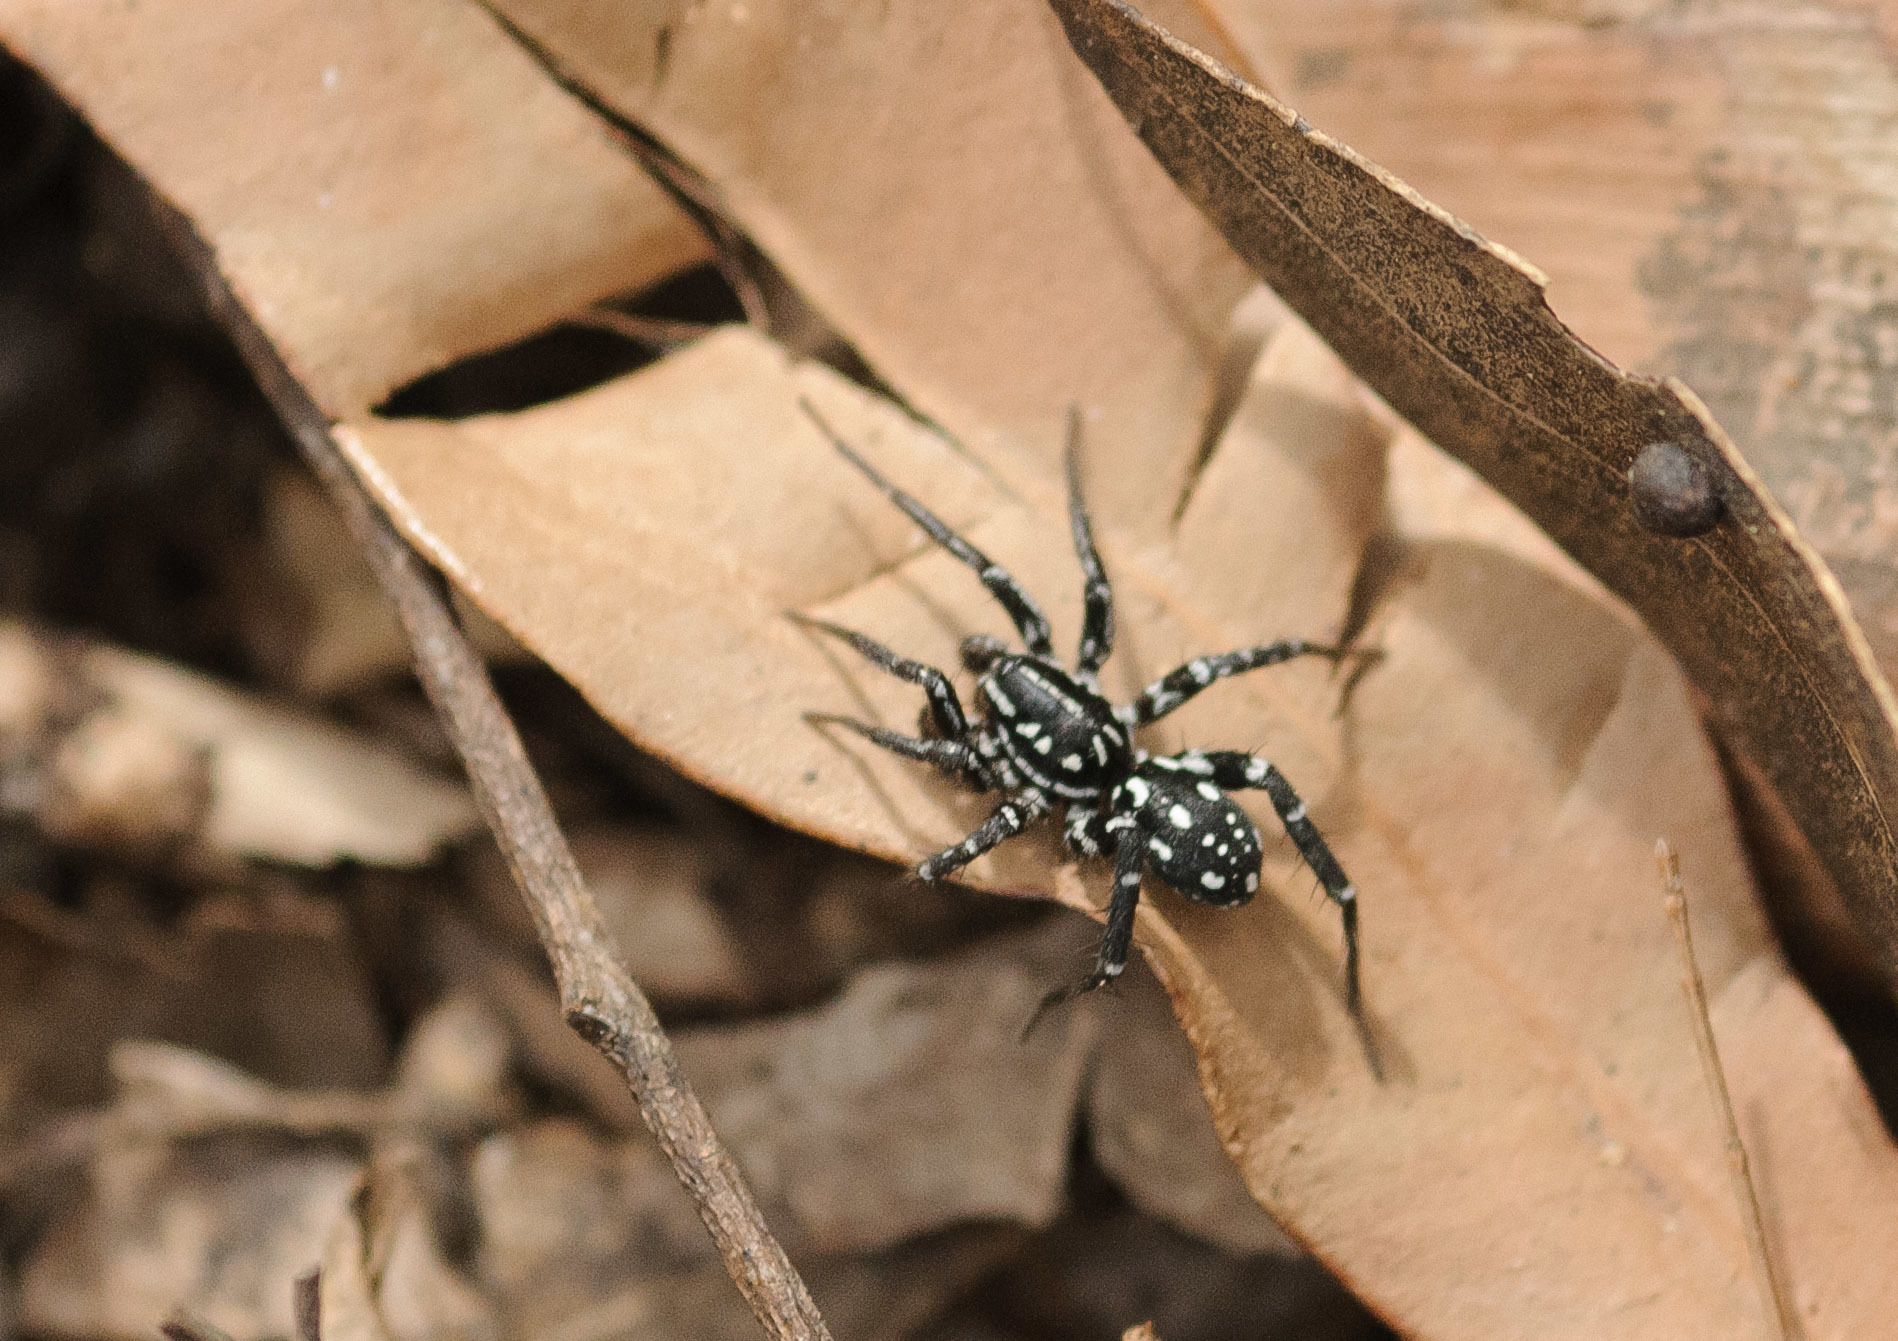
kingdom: Animalia
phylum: Arthropoda
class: Arachnida
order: Araneae
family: Corinnidae
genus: Nyssus
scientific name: Nyssus albopunctatus
